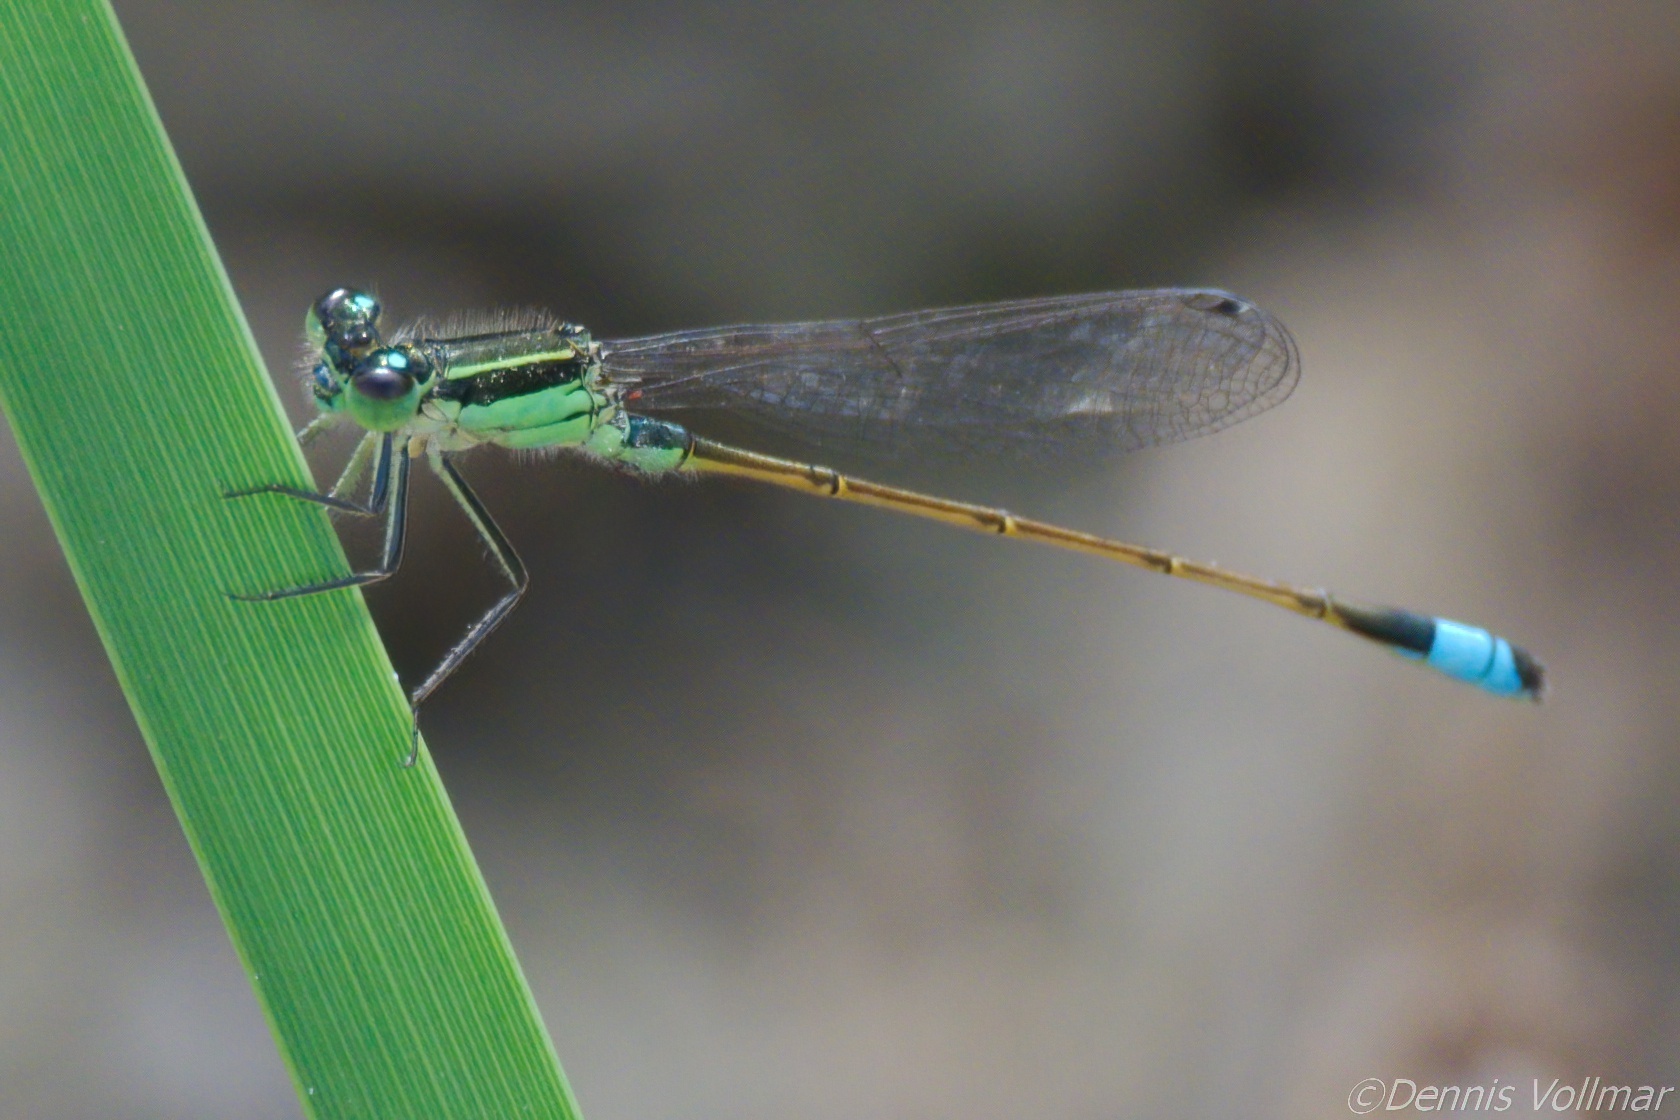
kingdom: Animalia
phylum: Arthropoda
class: Insecta
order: Odonata
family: Coenagrionidae
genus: Ischnura
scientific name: Ischnura ramburii
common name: Rambur's forktail
